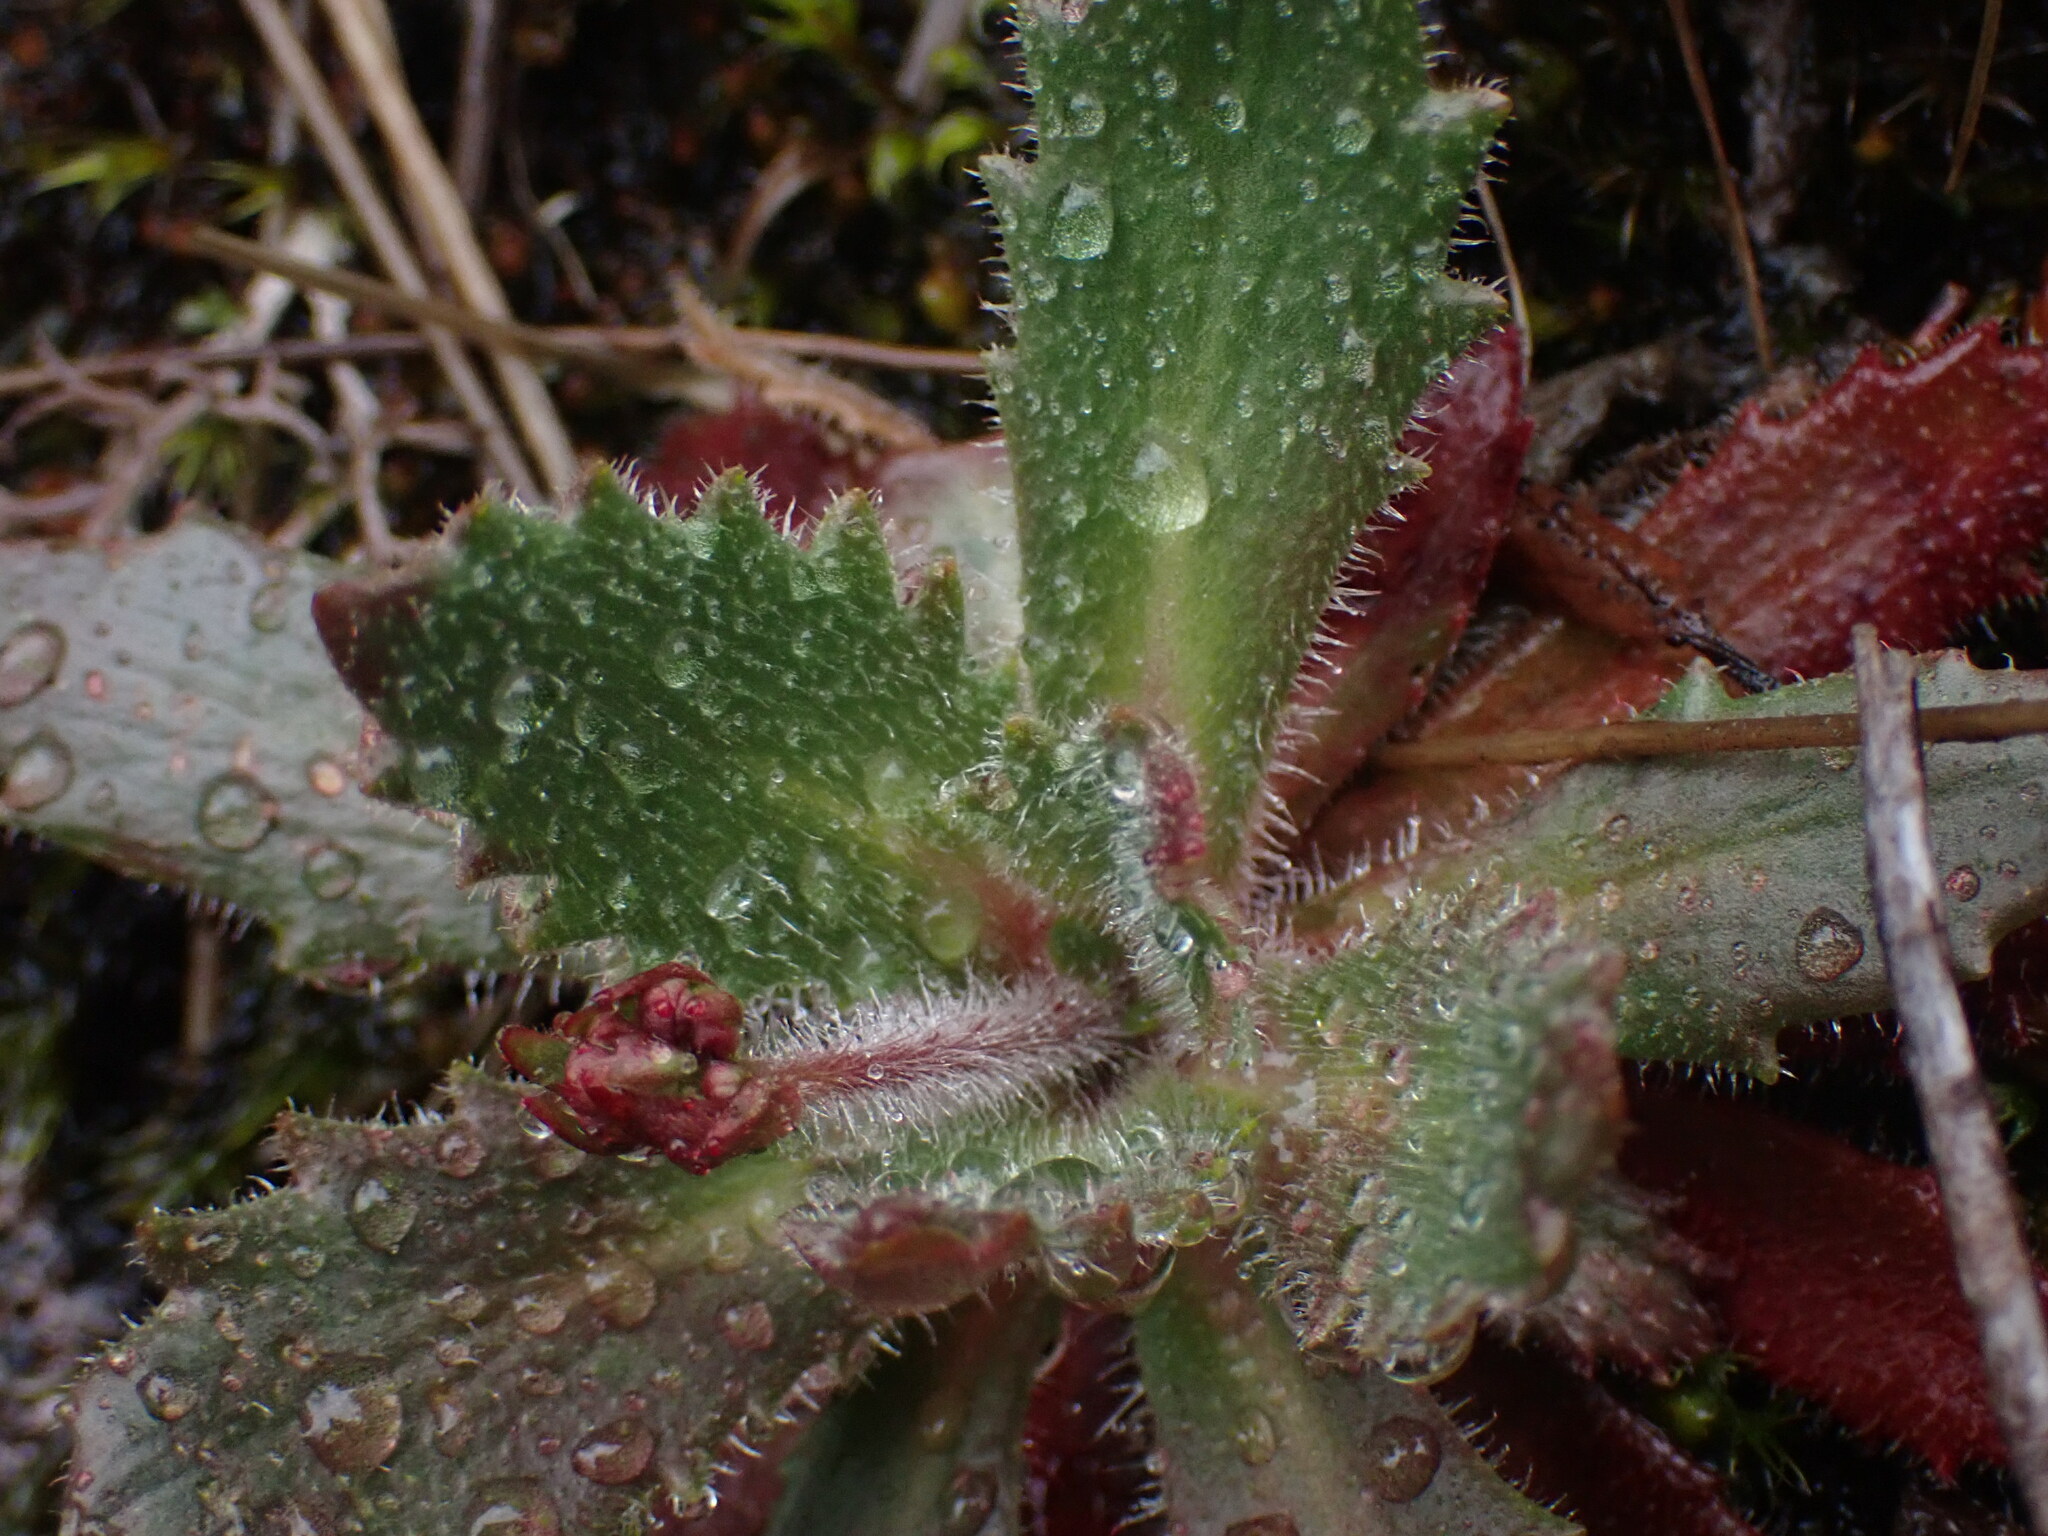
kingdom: Plantae
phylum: Tracheophyta
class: Magnoliopsida
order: Saxifragales
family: Saxifragaceae
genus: Micranthes
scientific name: Micranthes ferruginea
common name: Rusty saxifrage
